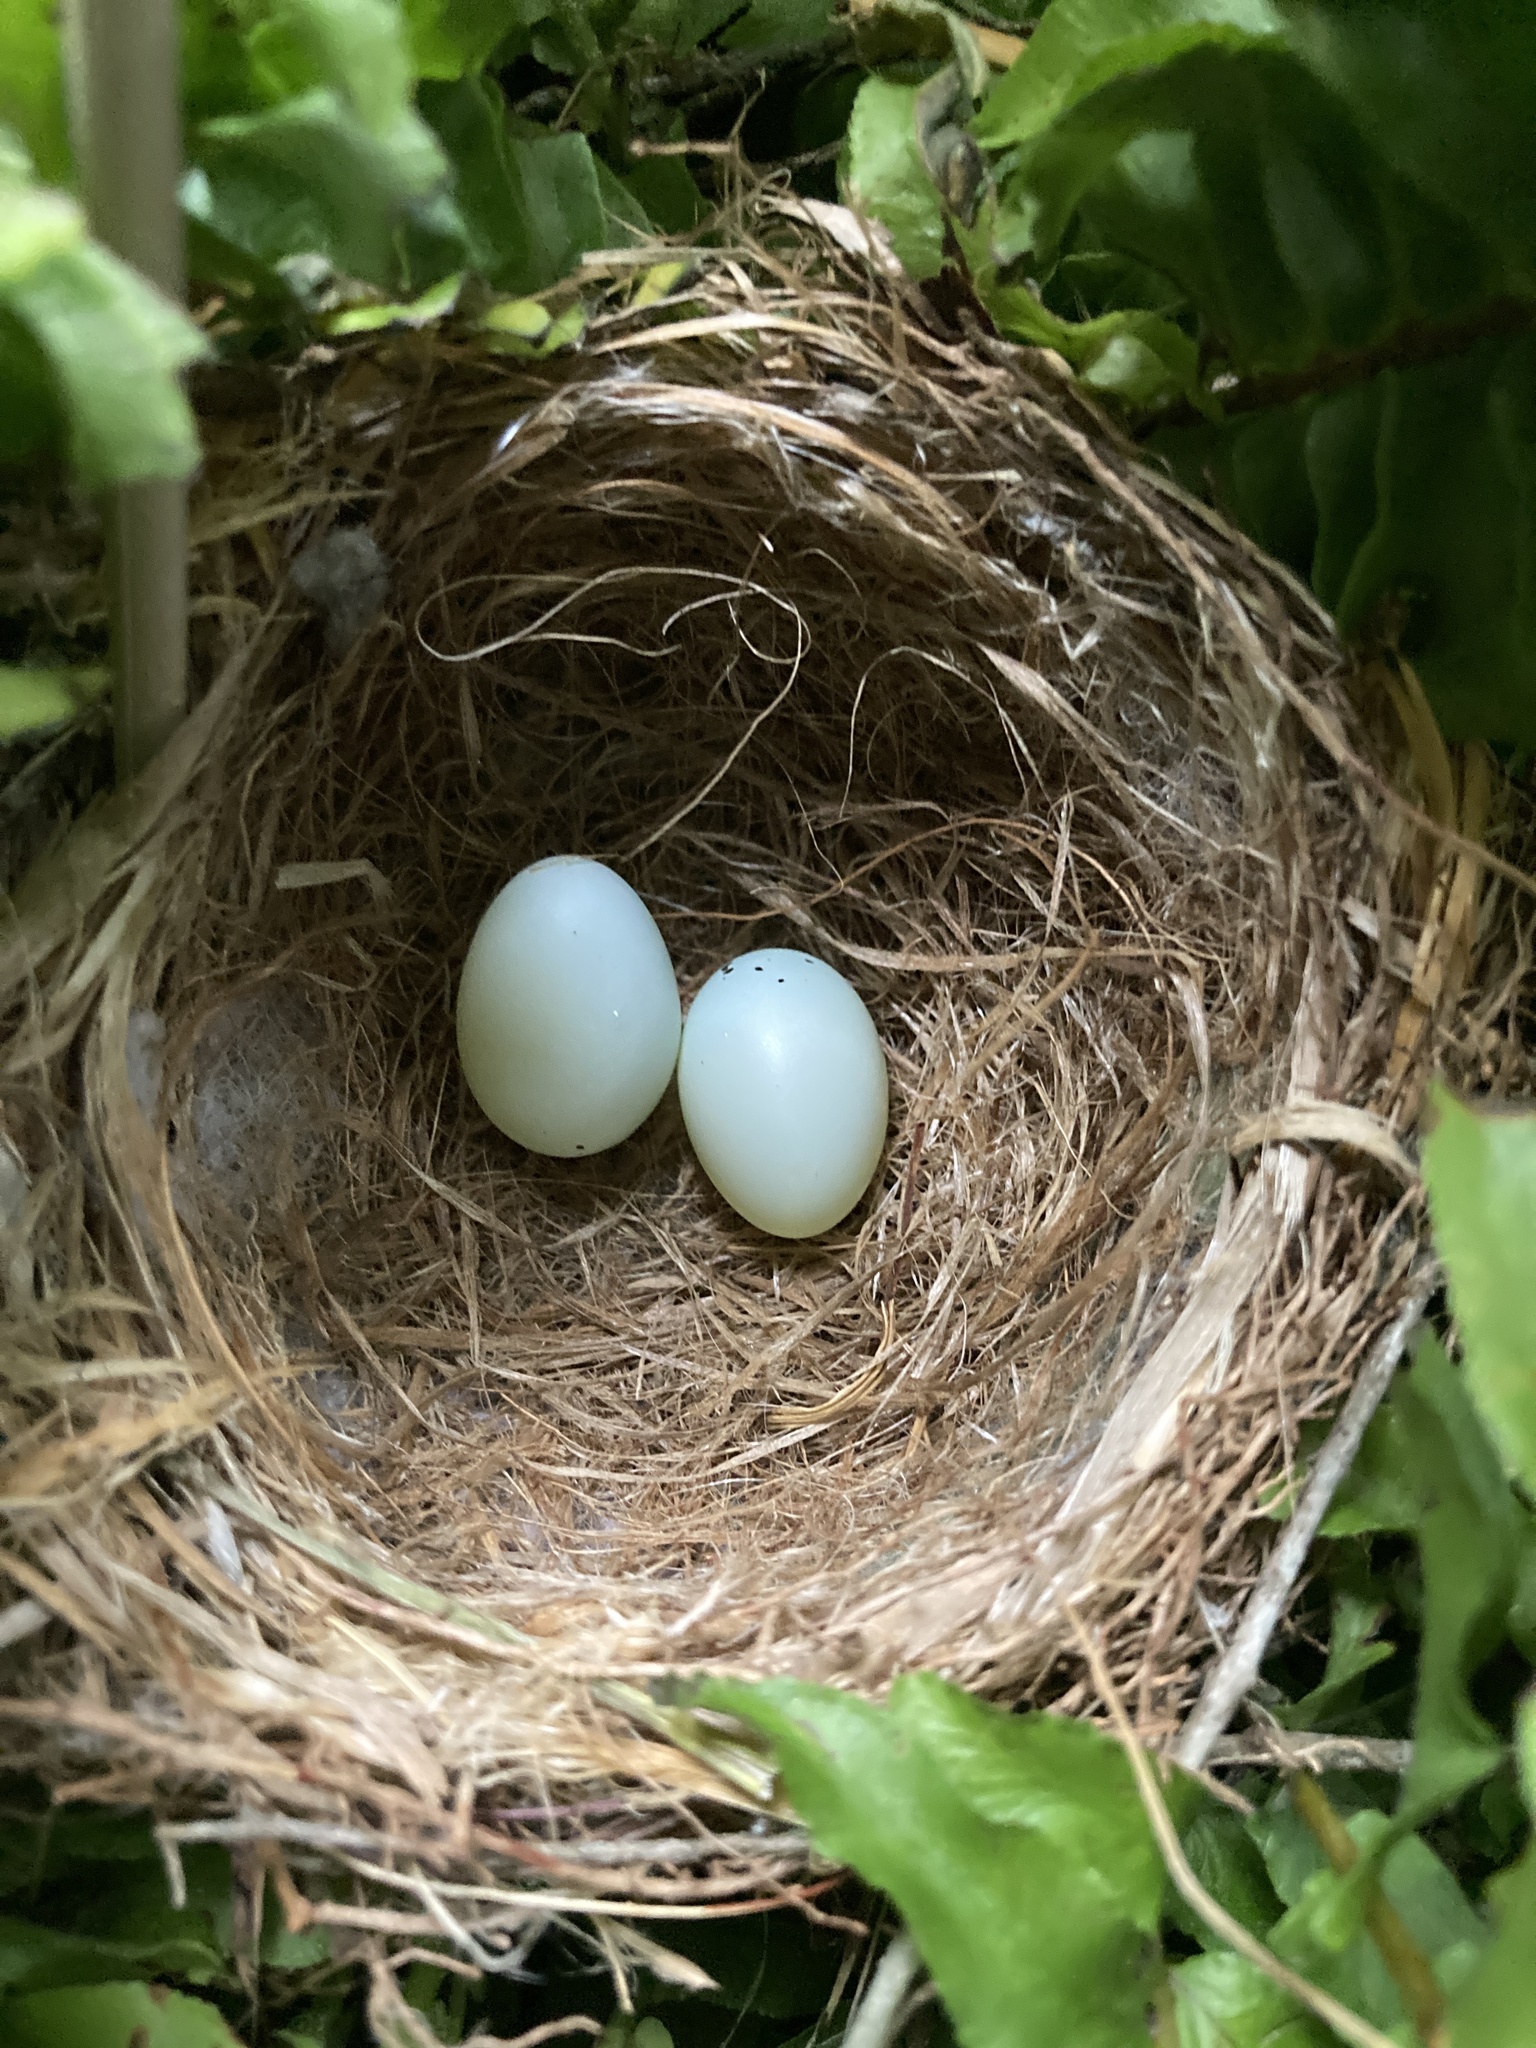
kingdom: Animalia
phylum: Chordata
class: Aves
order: Passeriformes
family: Fringillidae
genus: Haemorhous
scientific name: Haemorhous mexicanus
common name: House finch
